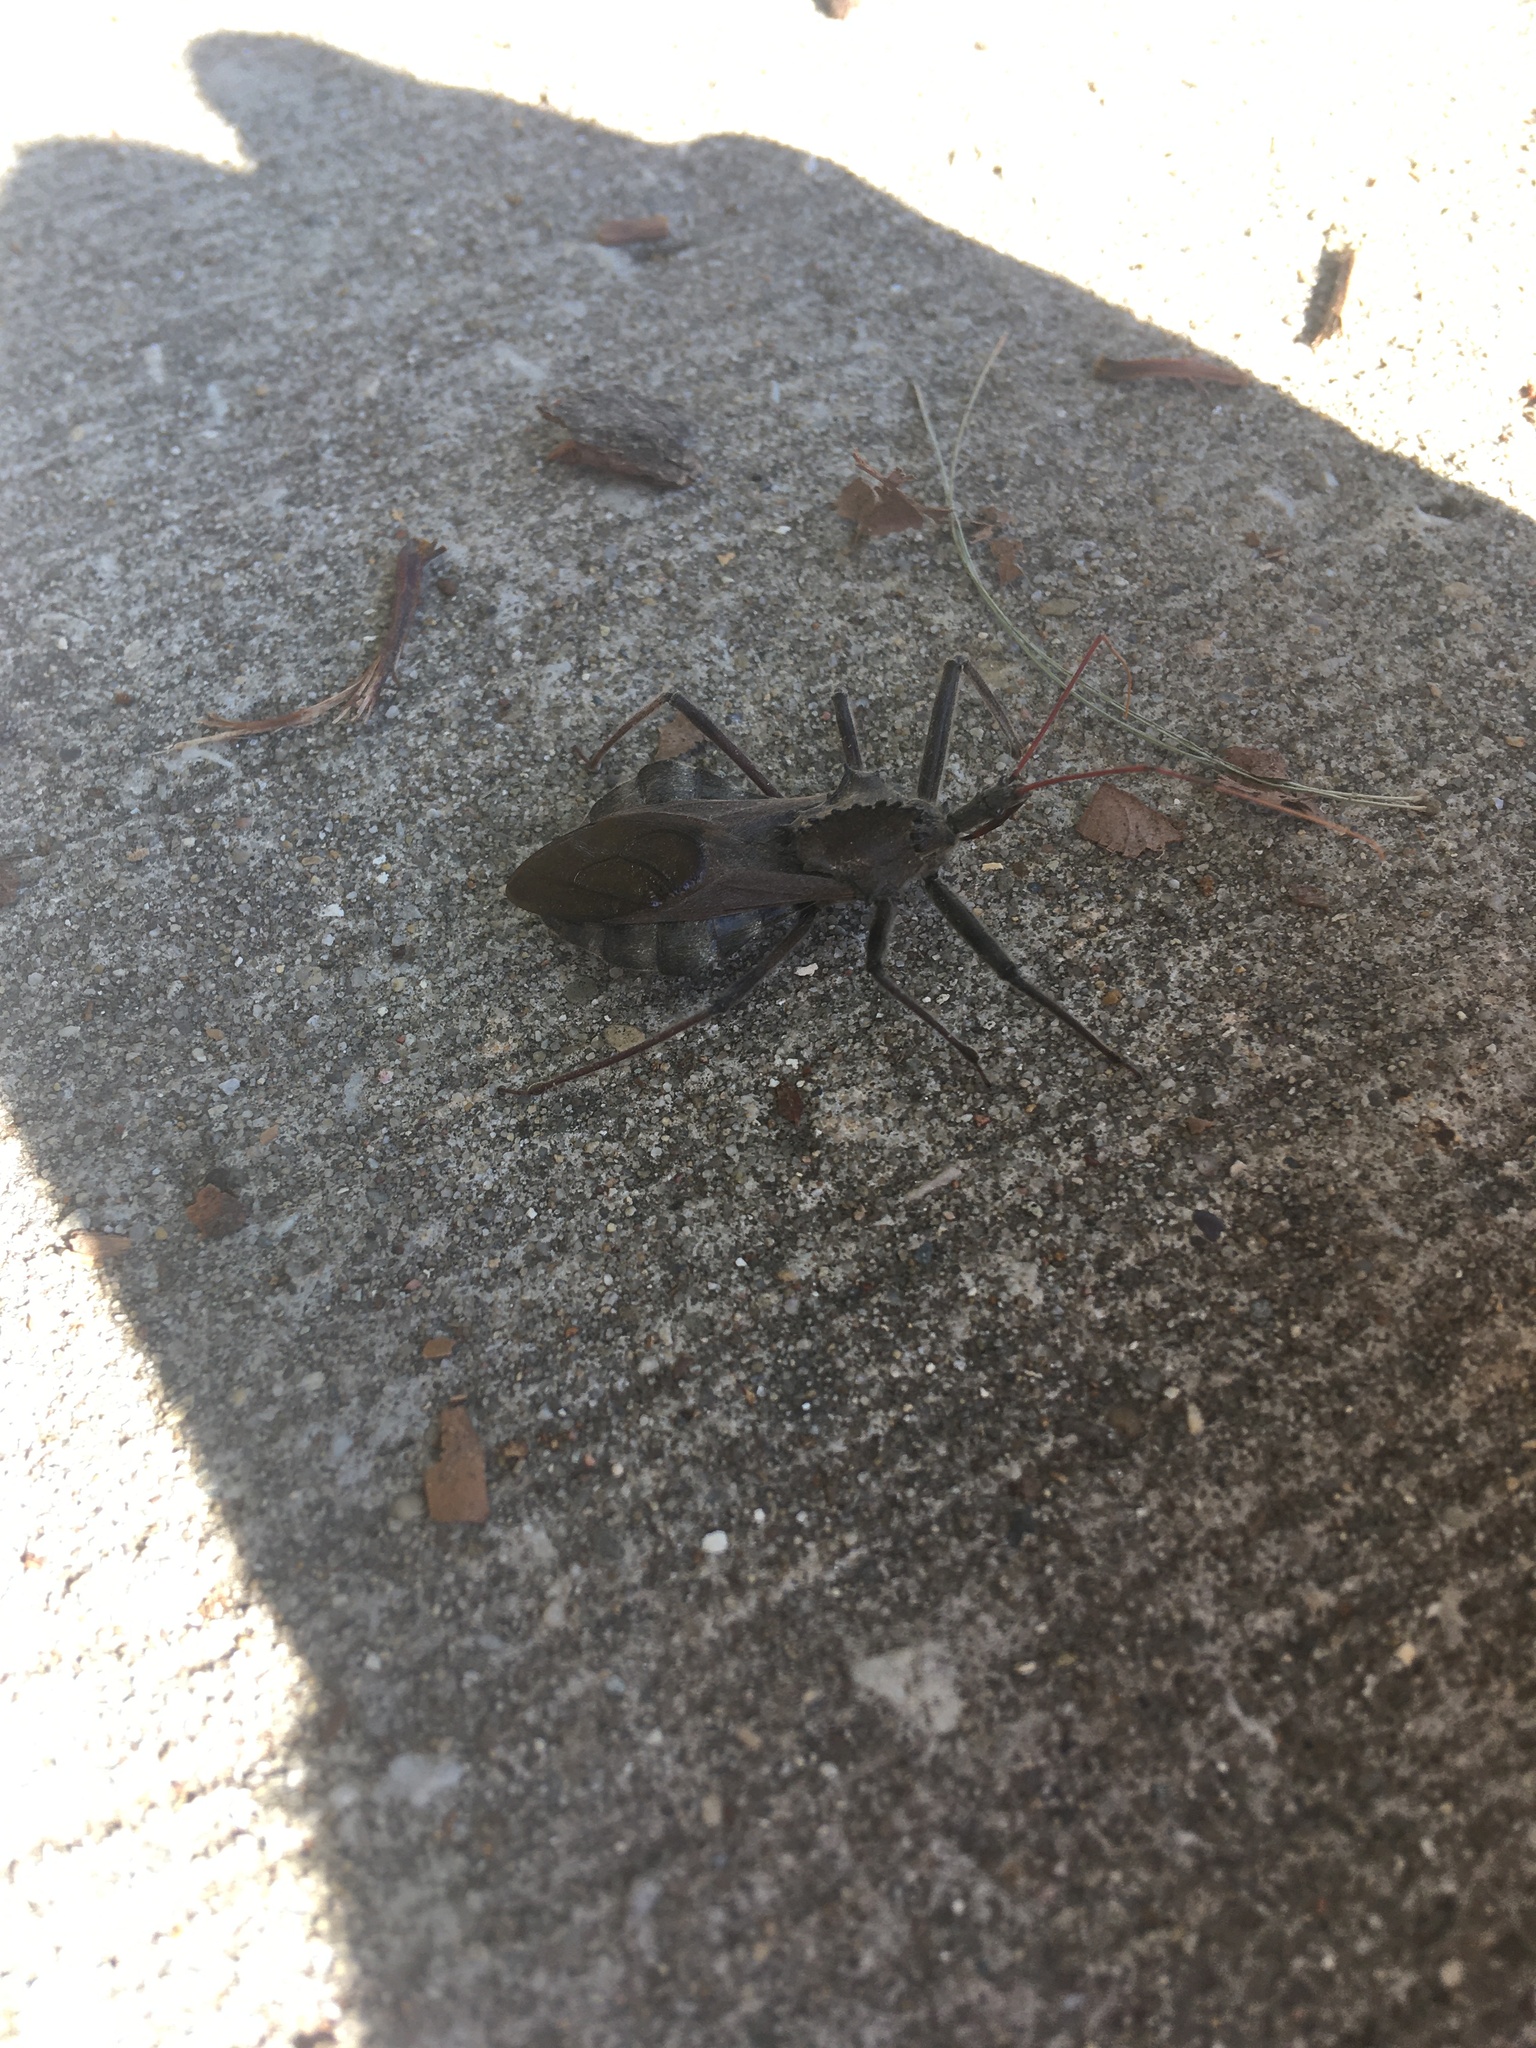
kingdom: Animalia
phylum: Arthropoda
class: Insecta
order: Hemiptera
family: Reduviidae
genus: Arilus
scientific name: Arilus cristatus
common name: North american wheel bug
